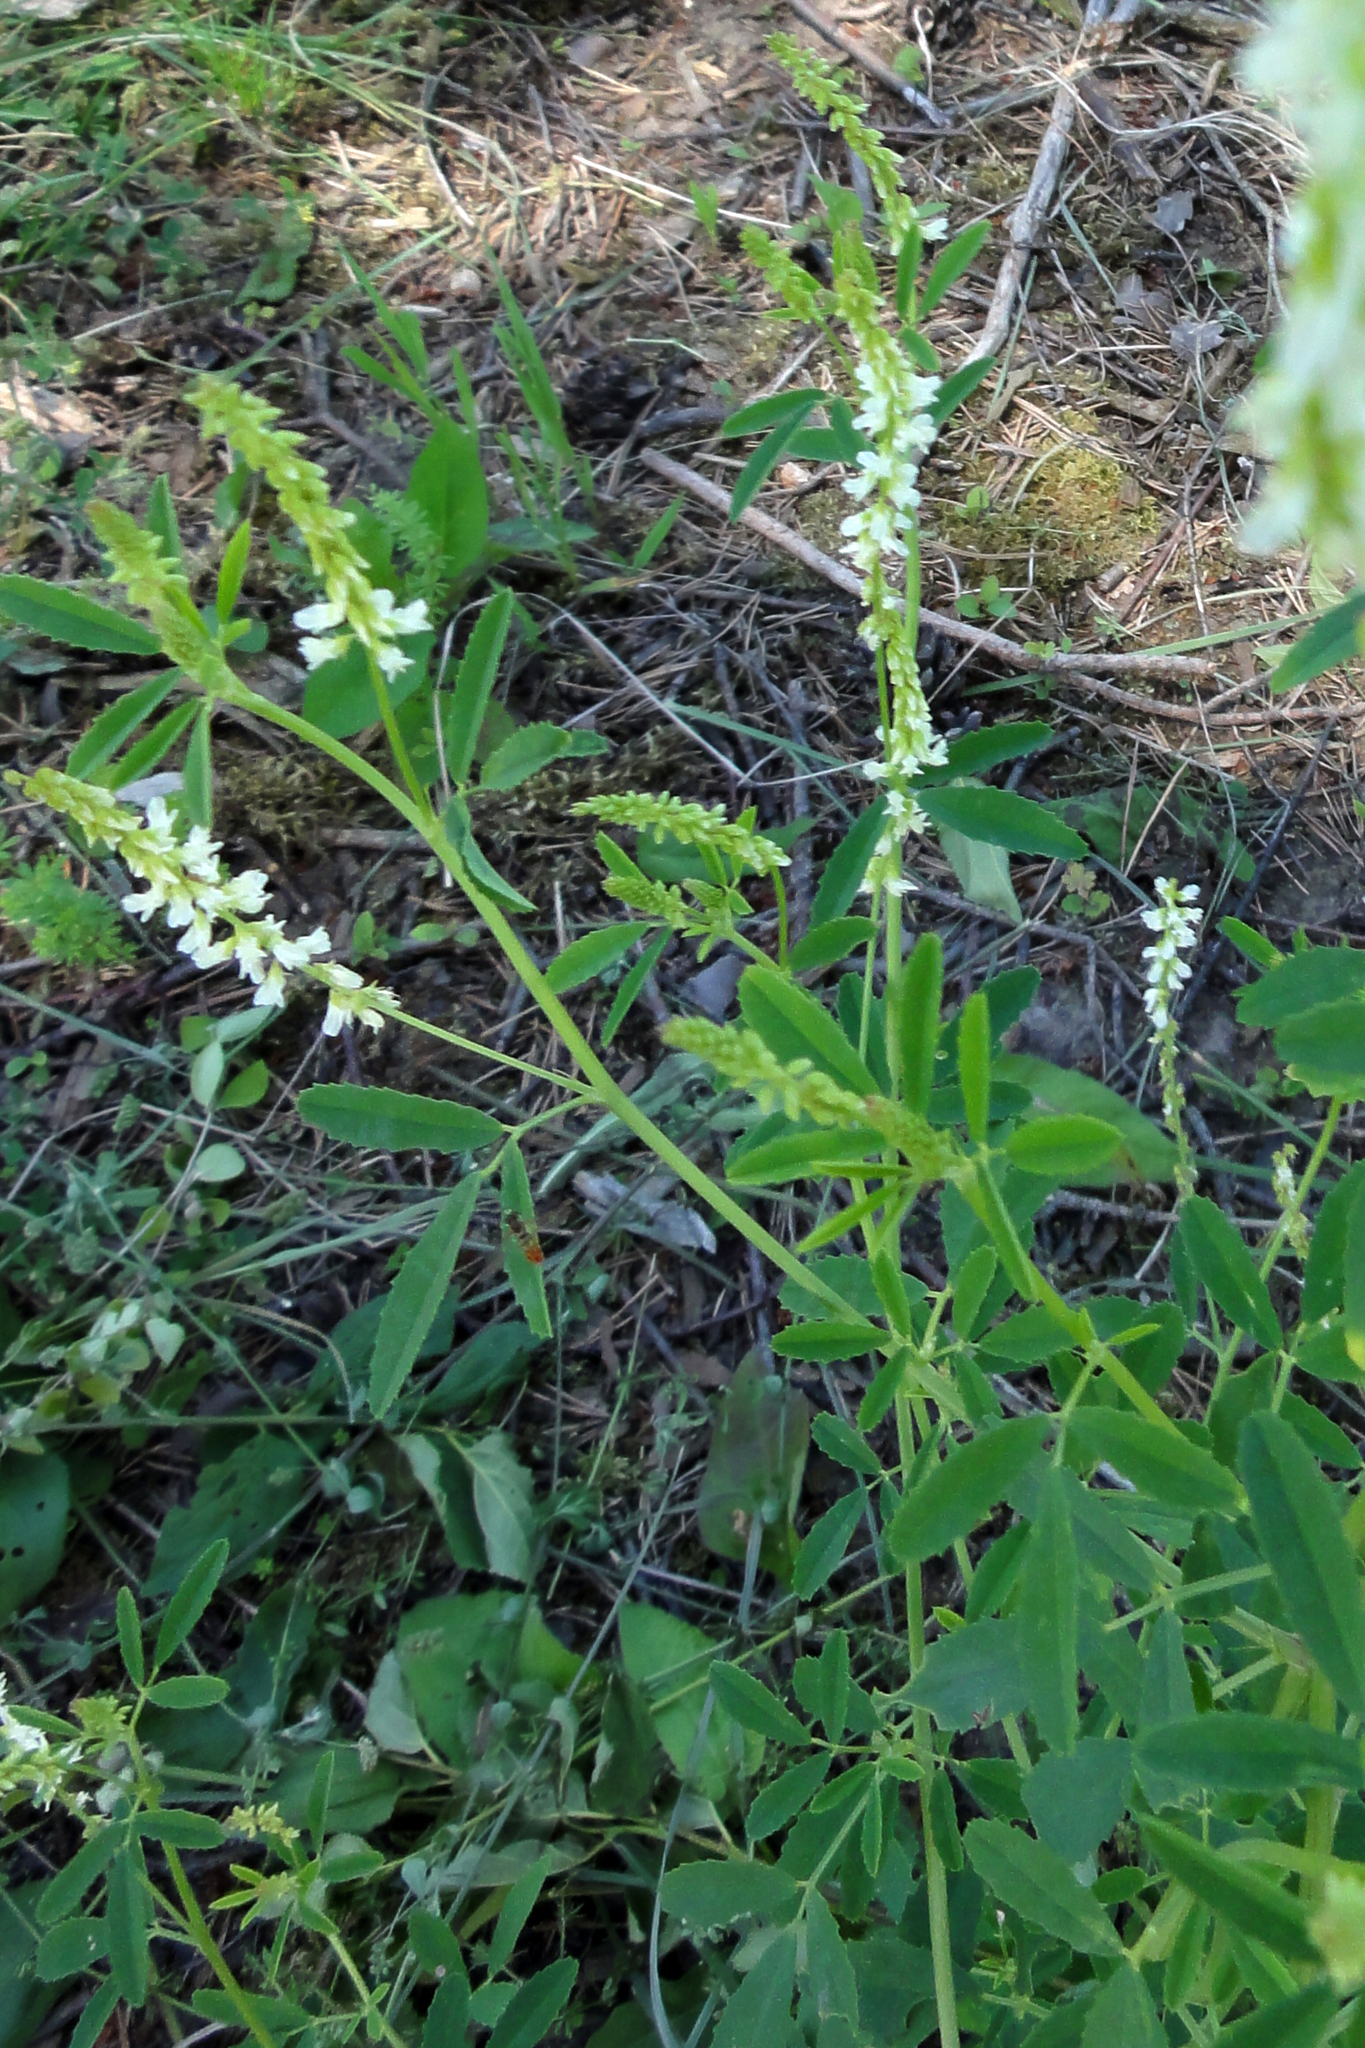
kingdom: Plantae
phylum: Tracheophyta
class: Magnoliopsida
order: Fabales
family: Fabaceae
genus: Melilotus
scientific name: Melilotus albus
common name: White melilot
